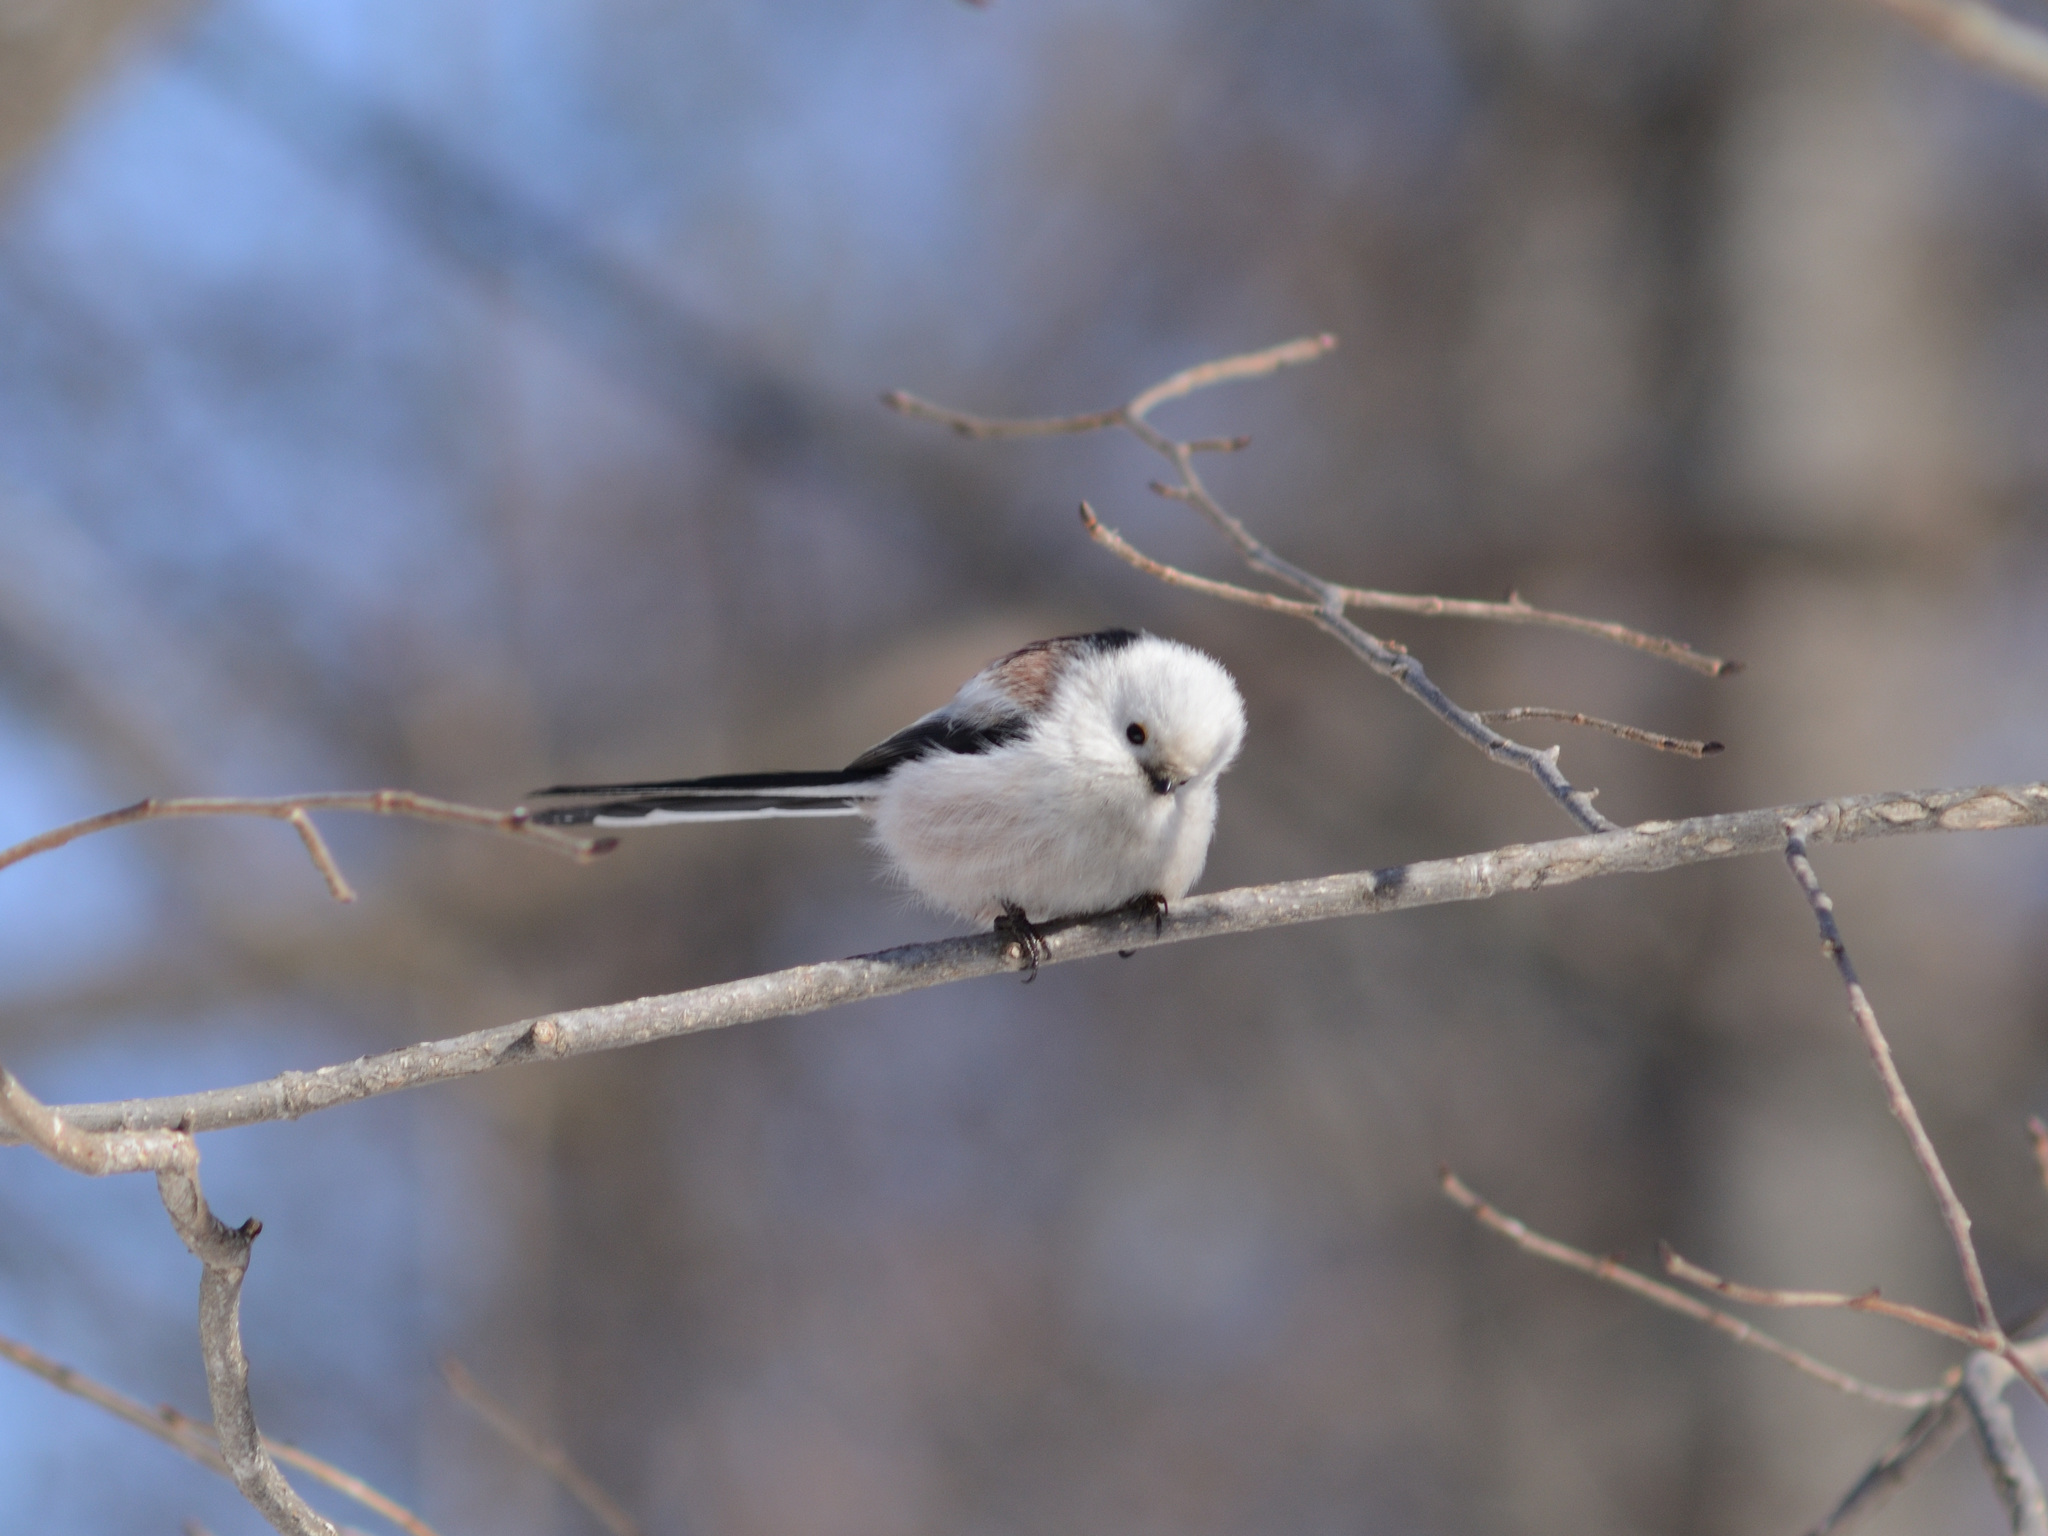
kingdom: Animalia
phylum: Chordata
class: Aves
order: Passeriformes
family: Aegithalidae
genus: Aegithalos
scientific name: Aegithalos caudatus
